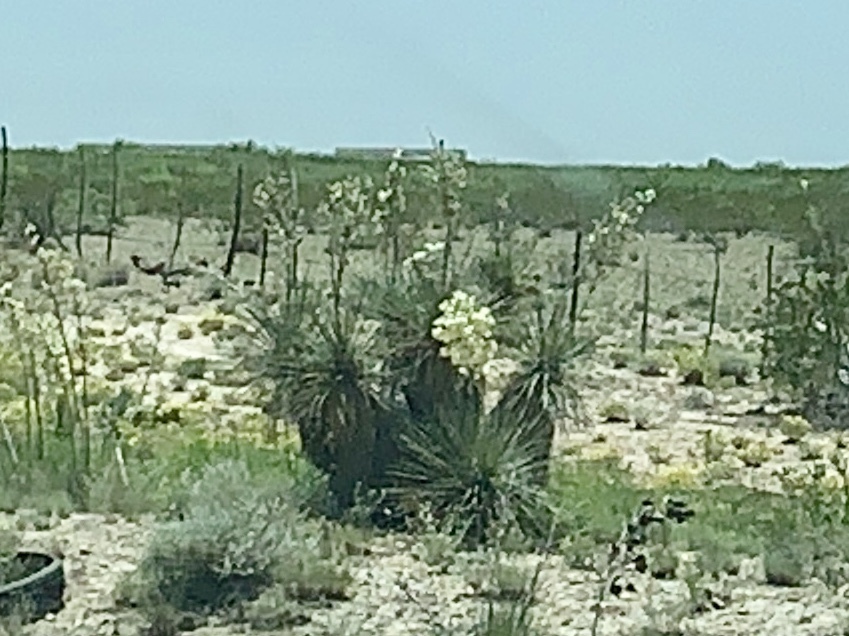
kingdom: Plantae
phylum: Tracheophyta
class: Liliopsida
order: Asparagales
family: Asparagaceae
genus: Yucca
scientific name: Yucca elata
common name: Palmella
